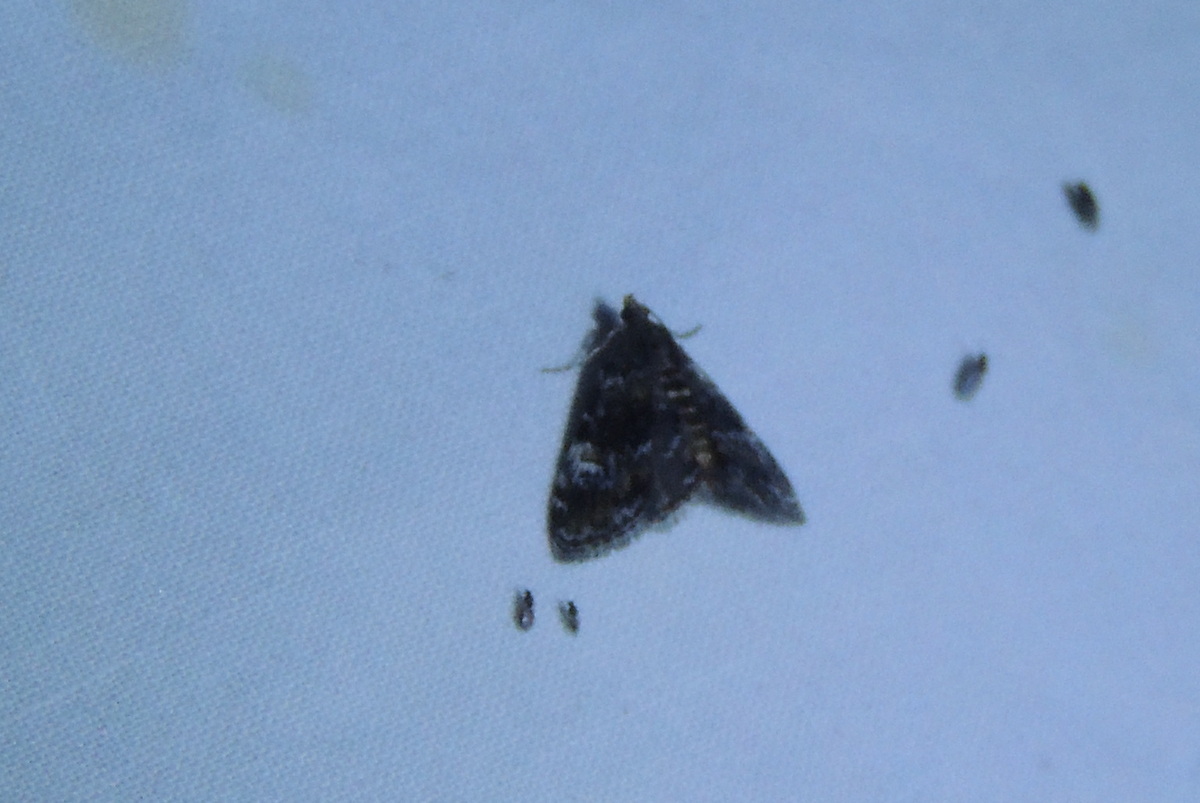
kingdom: Animalia
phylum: Arthropoda
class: Insecta
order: Lepidoptera
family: Crambidae
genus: Elophila
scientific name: Elophila obliteralis
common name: Waterlily leafcutter moth
